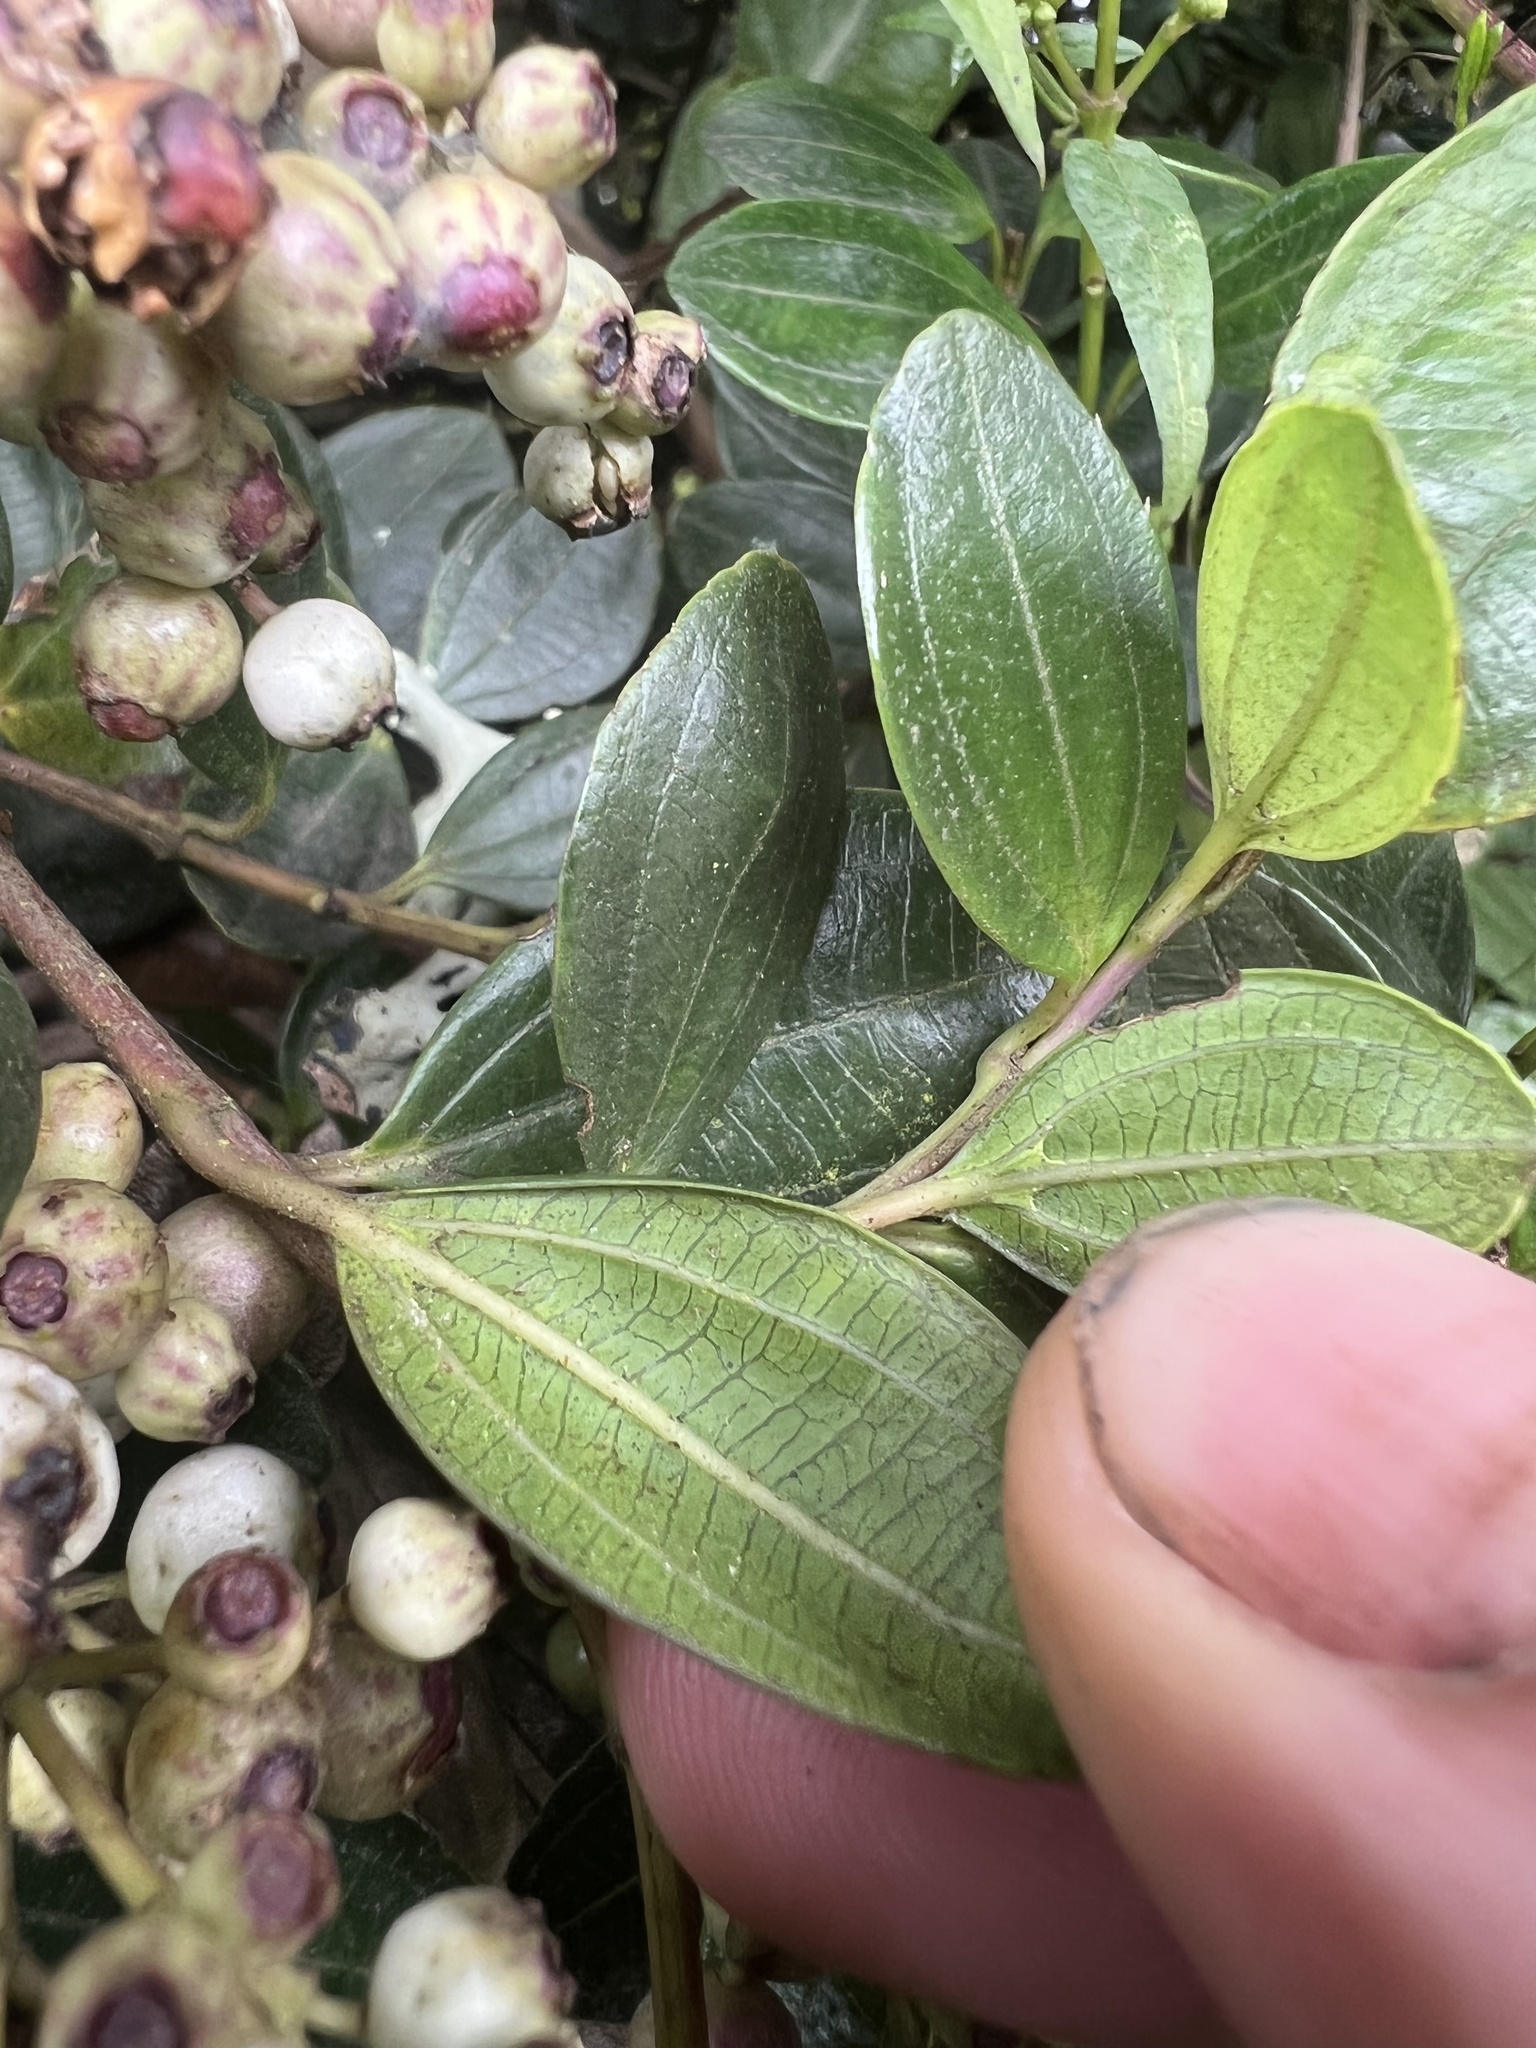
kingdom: Plantae
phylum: Tracheophyta
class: Magnoliopsida
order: Myrtales
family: Melastomataceae
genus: Miconia
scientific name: Miconia ligustrina
